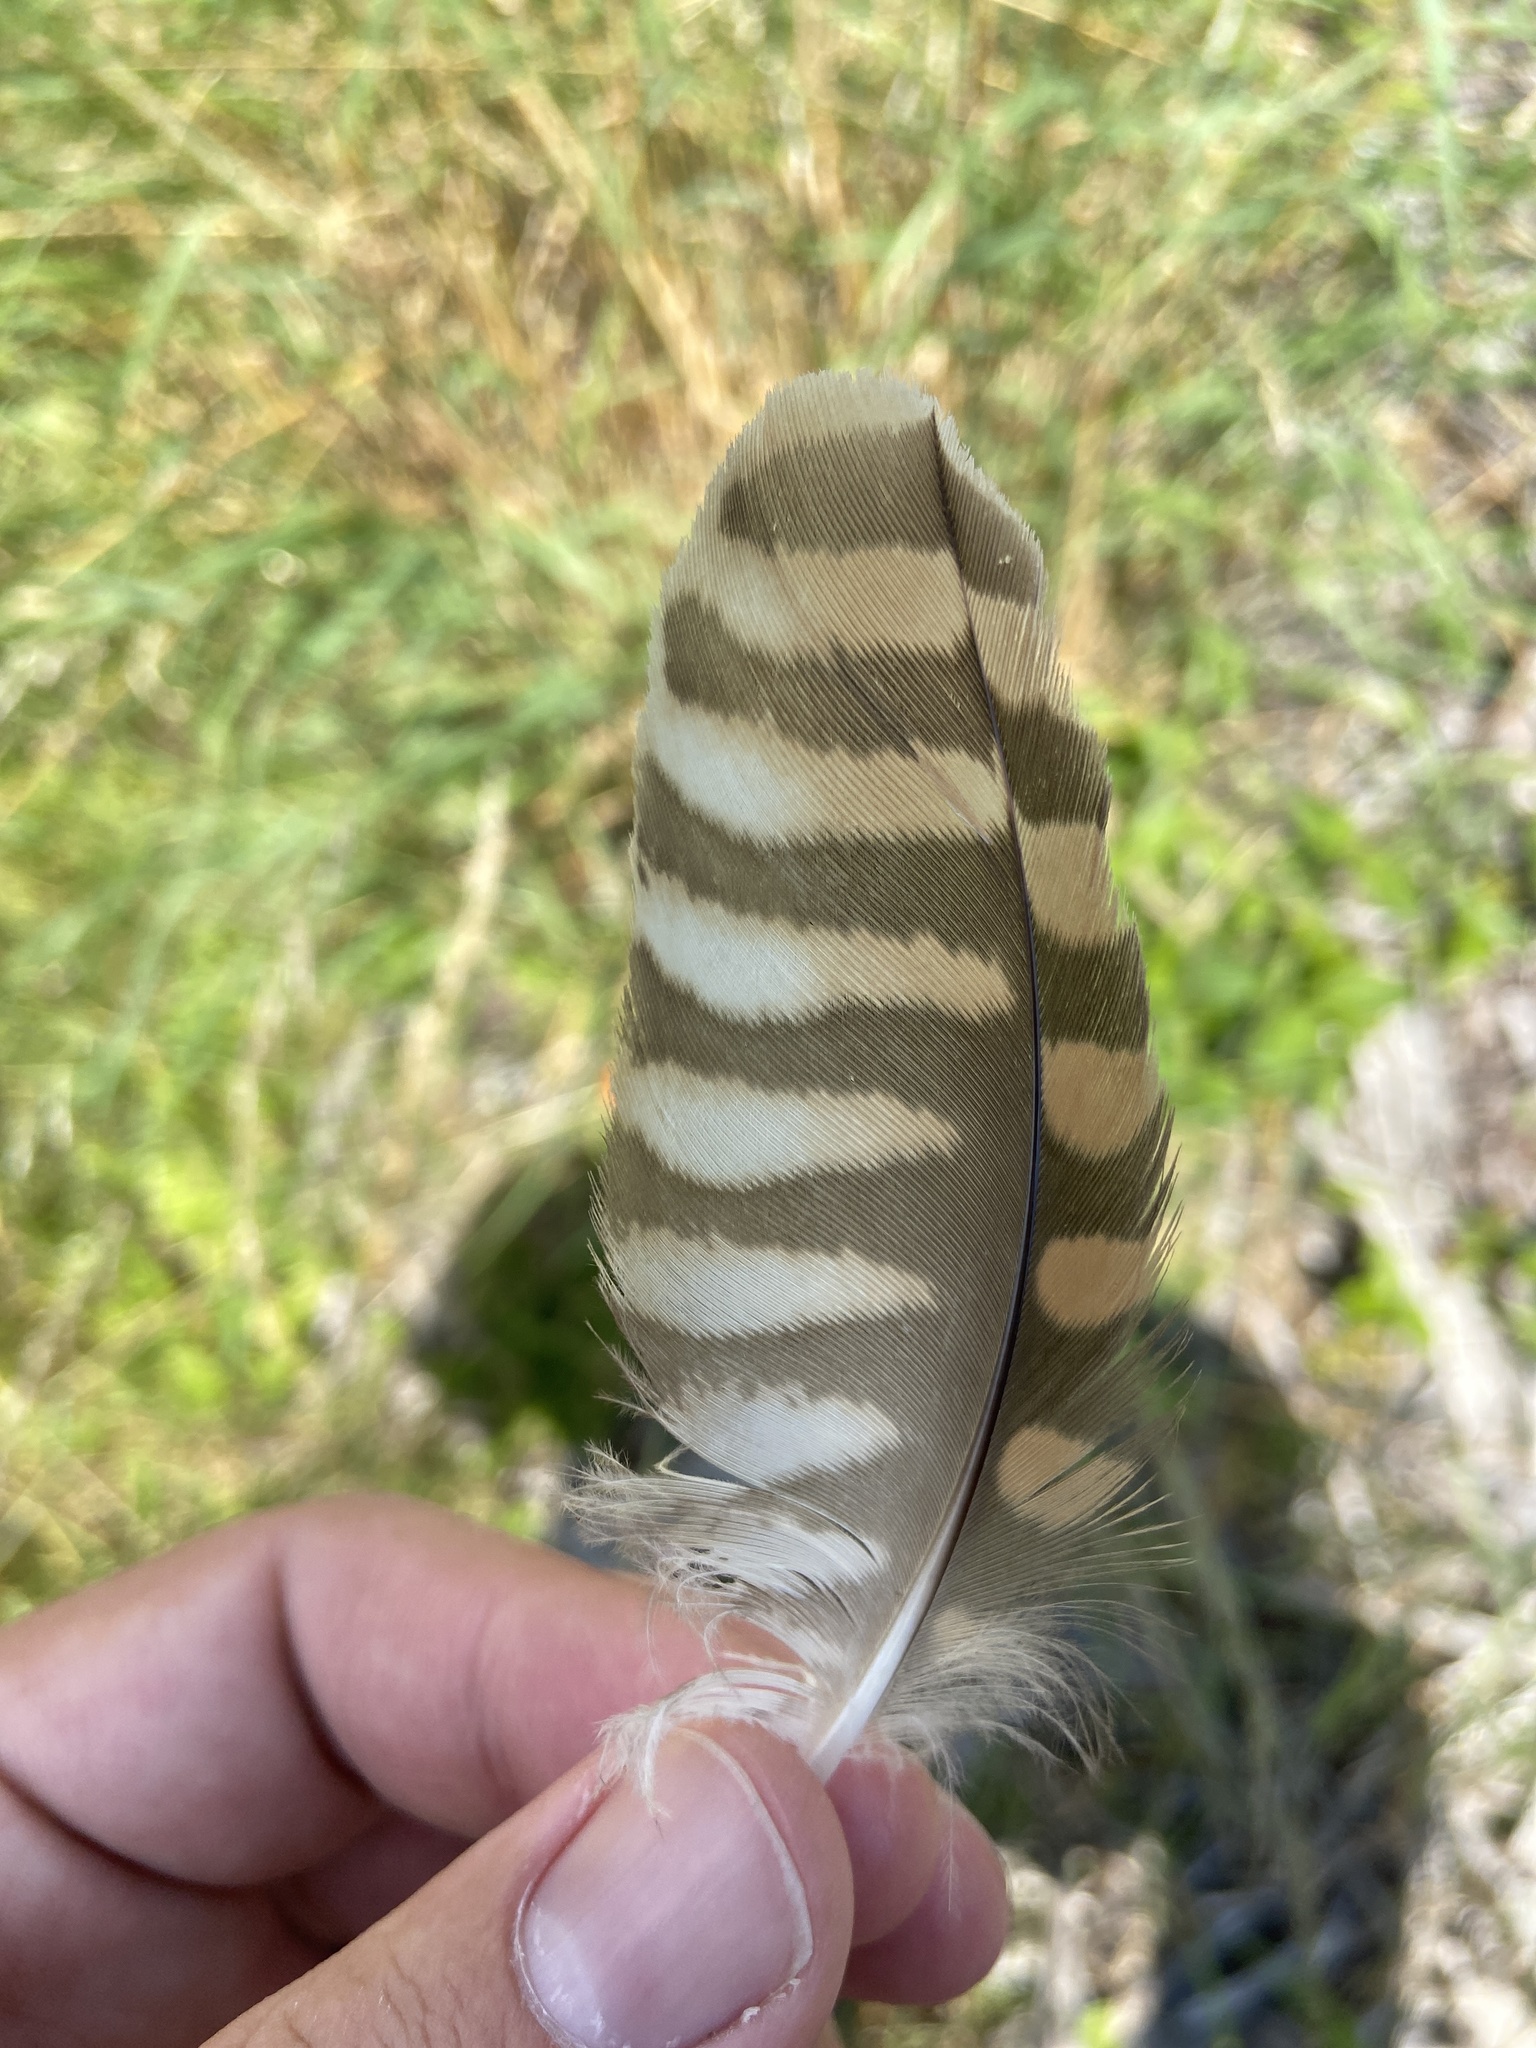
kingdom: Animalia
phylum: Chordata
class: Aves
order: Falconiformes
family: Falconidae
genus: Falco
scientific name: Falco tinnunculus
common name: Common kestrel
